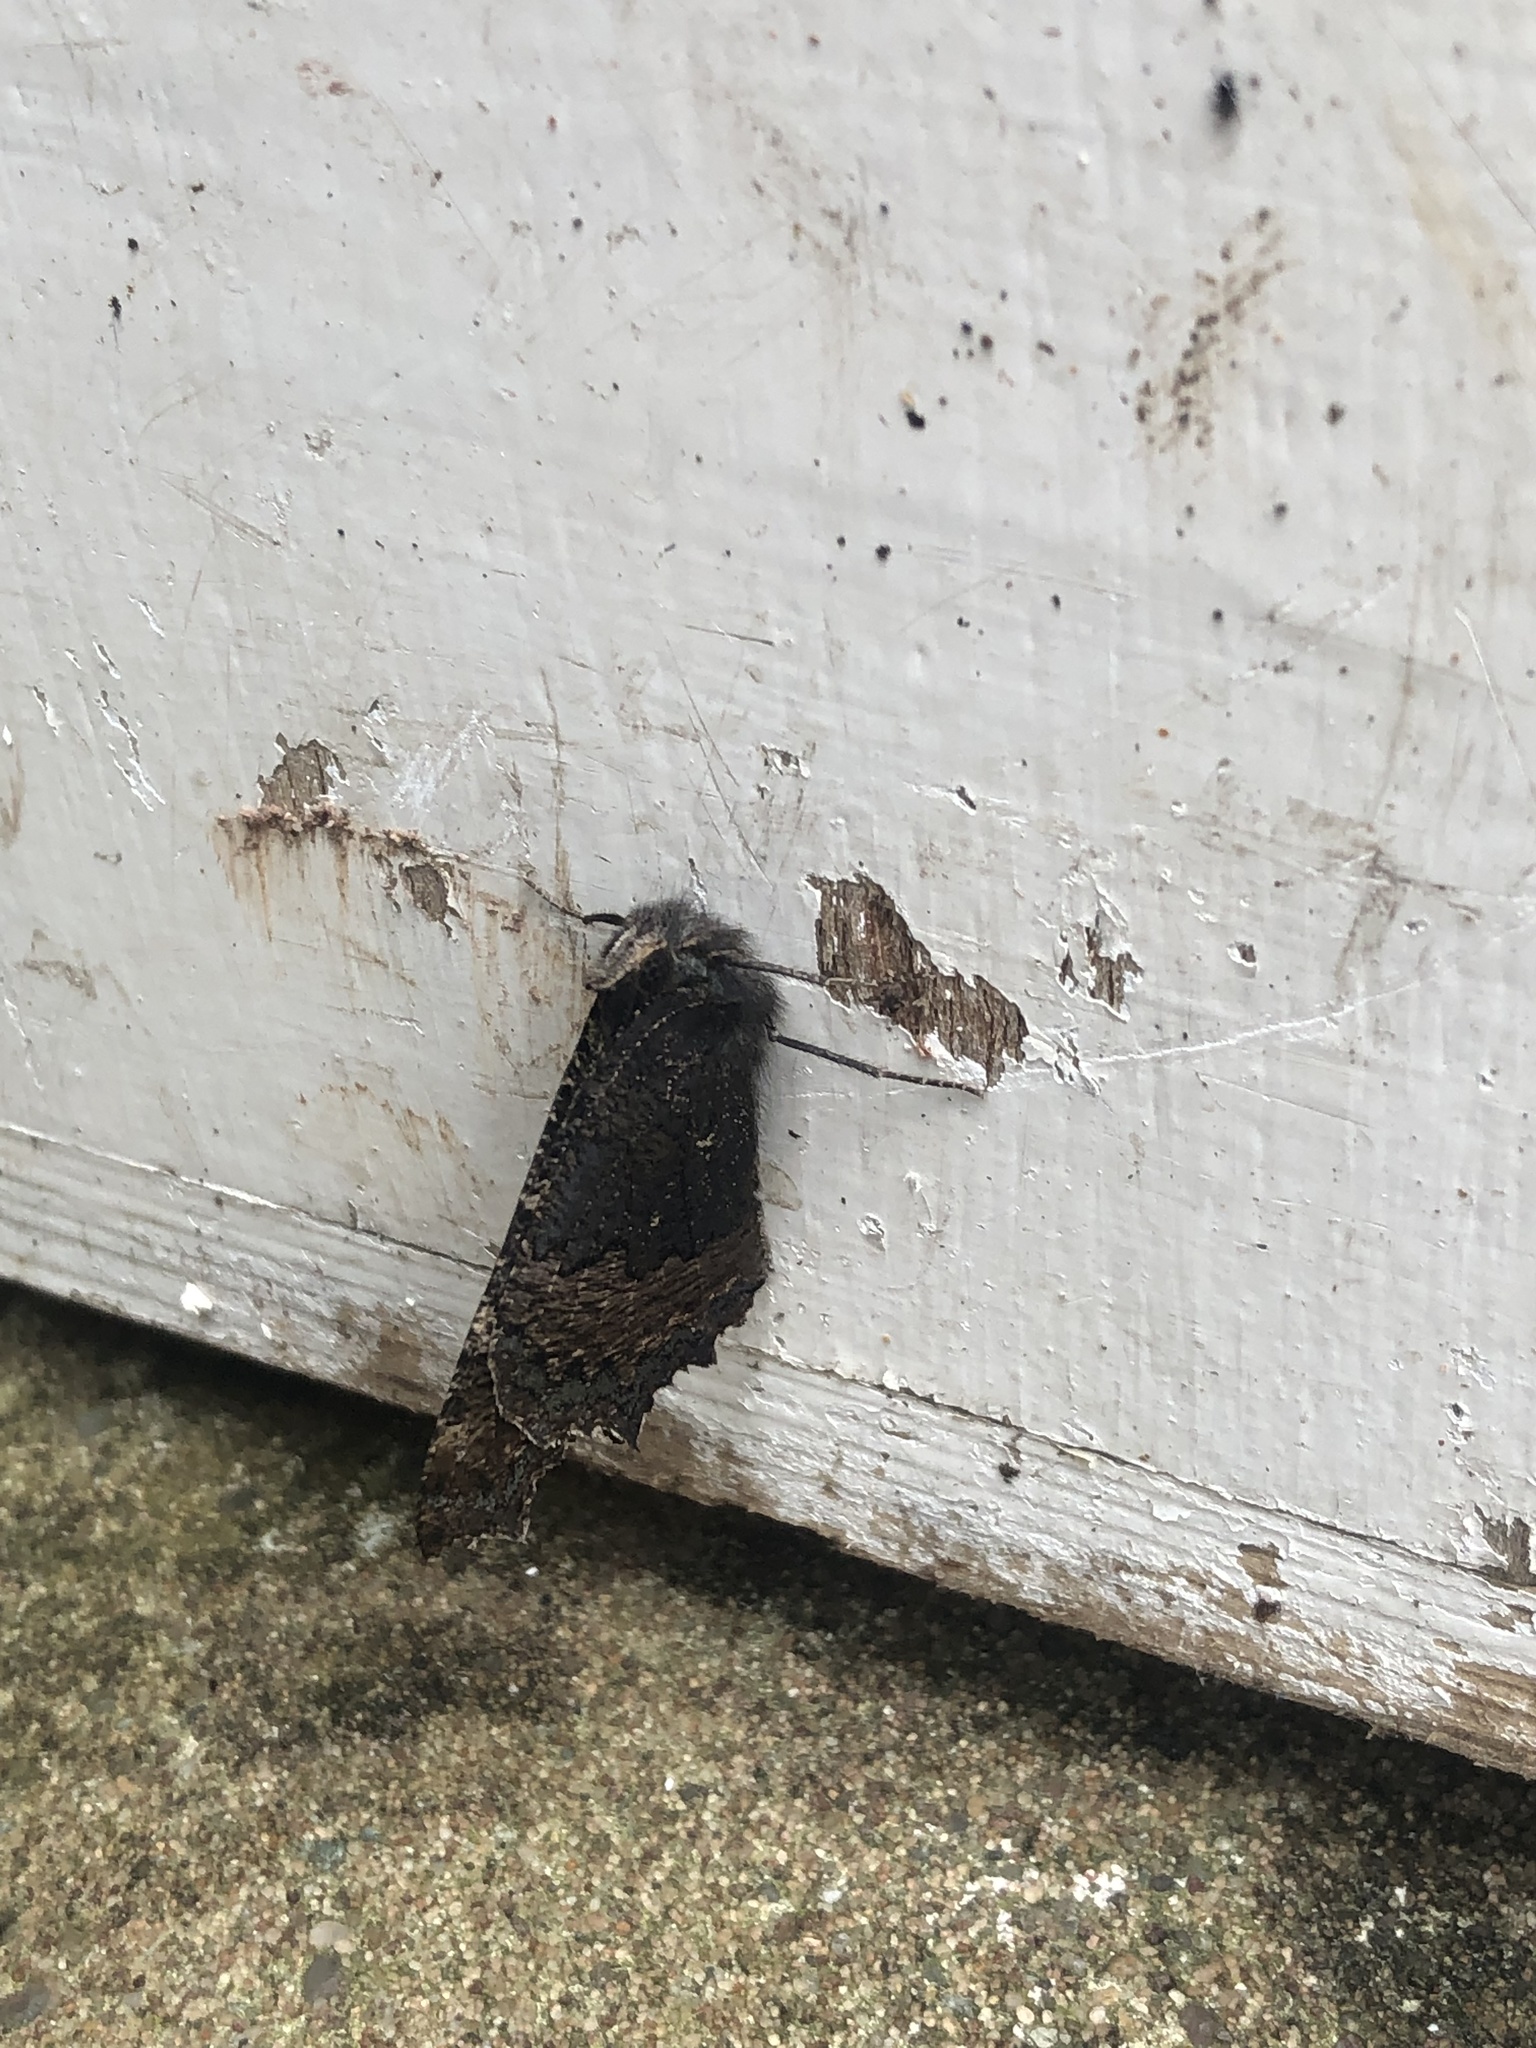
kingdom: Animalia
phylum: Arthropoda
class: Insecta
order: Lepidoptera
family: Nymphalidae
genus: Aglais
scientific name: Aglais urticae
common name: Small tortoiseshell
